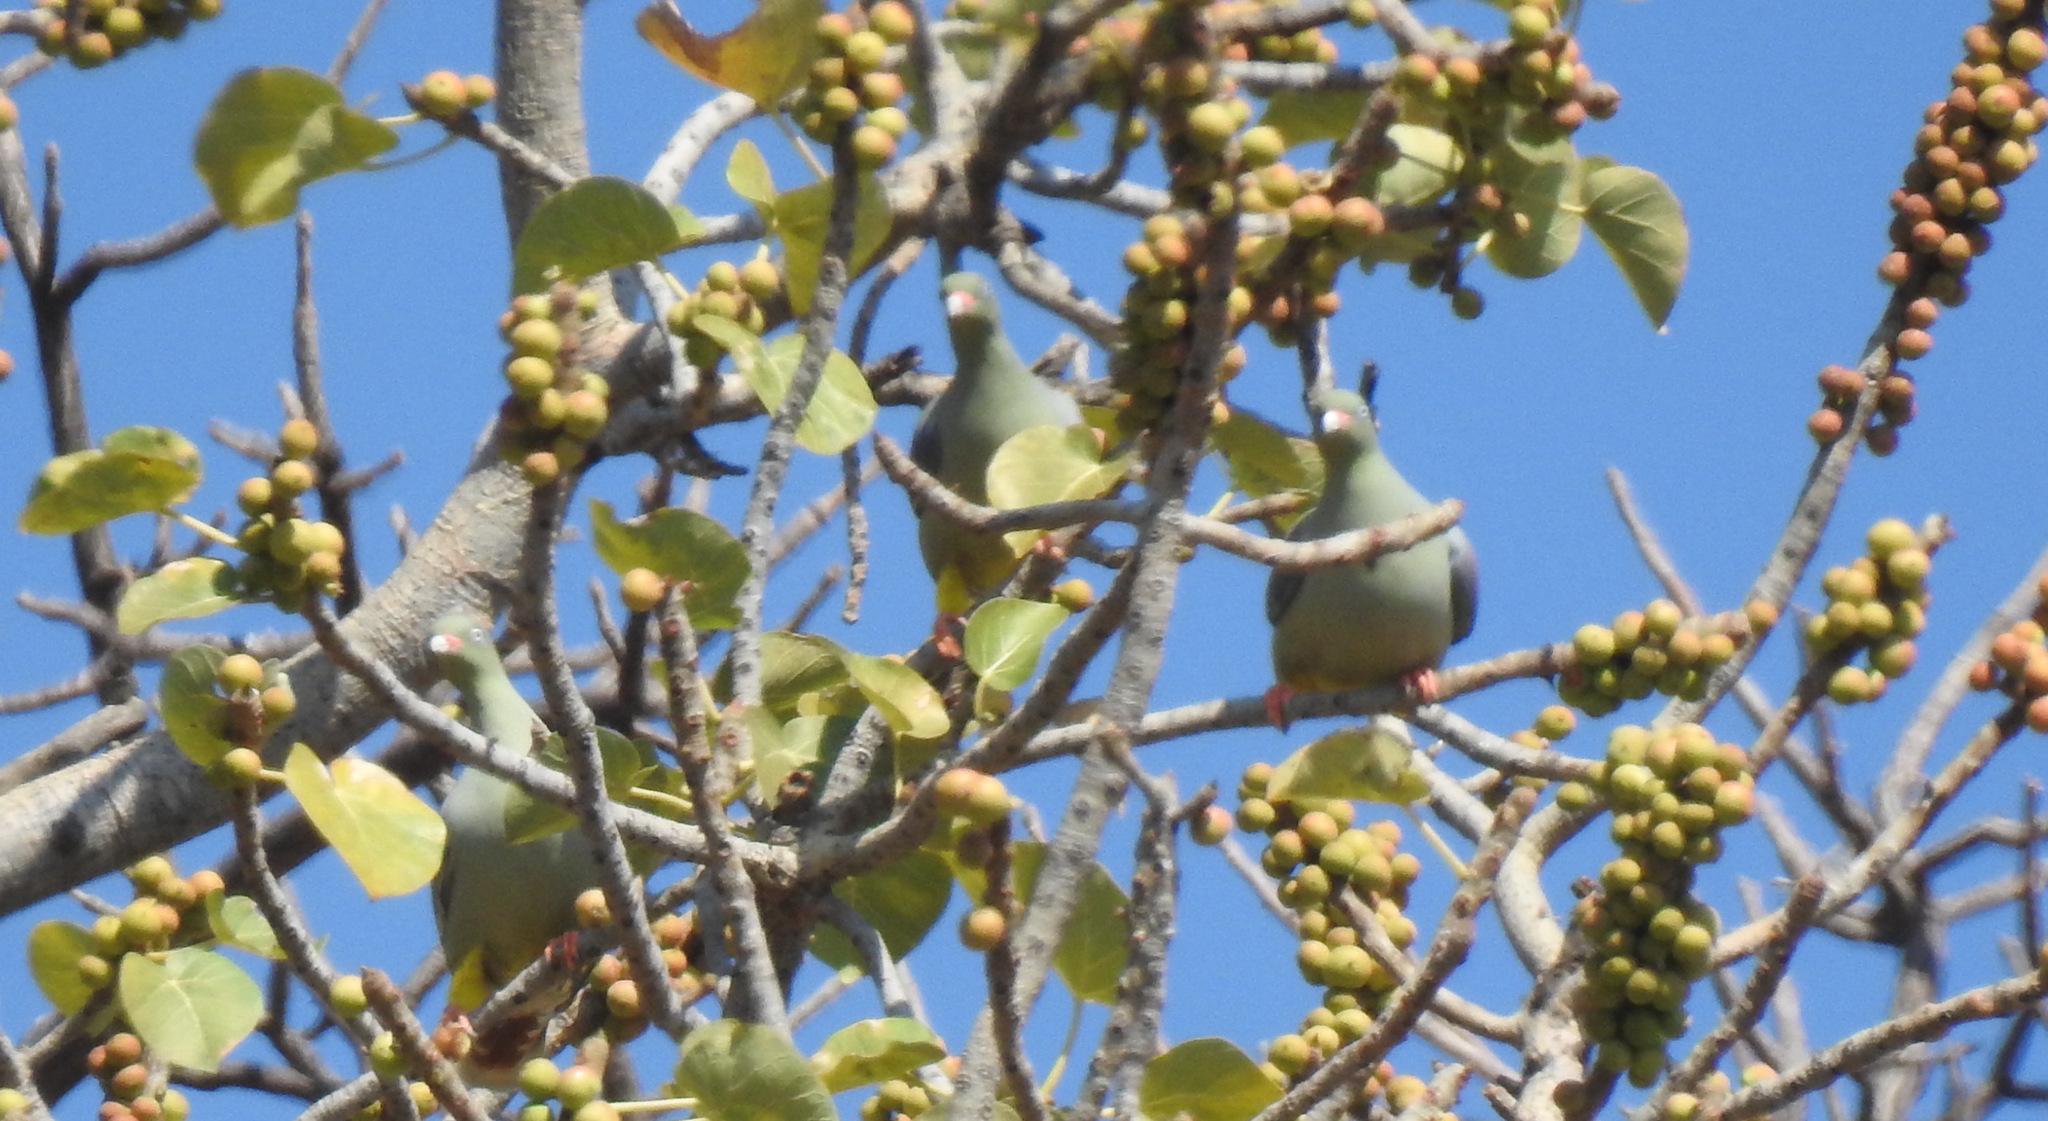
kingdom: Animalia
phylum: Chordata
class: Aves
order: Columbiformes
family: Columbidae
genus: Treron
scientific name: Treron calvus
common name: African green pigeon
